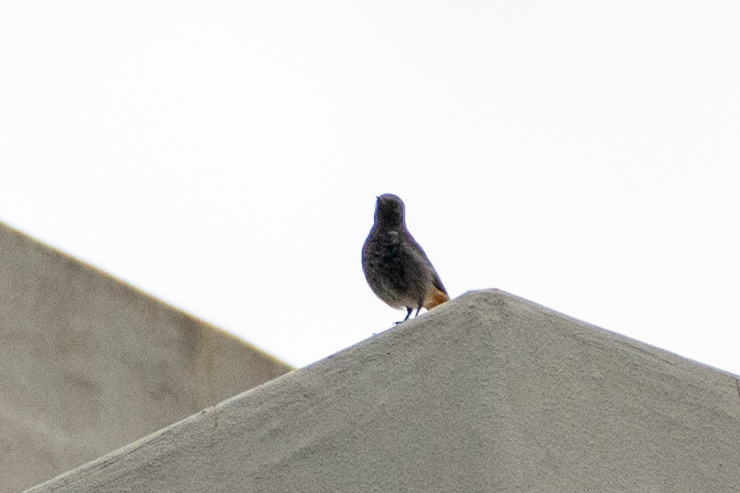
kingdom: Animalia
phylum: Chordata
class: Aves
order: Passeriformes
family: Muscicapidae
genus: Phoenicurus
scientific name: Phoenicurus ochruros
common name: Black redstart
